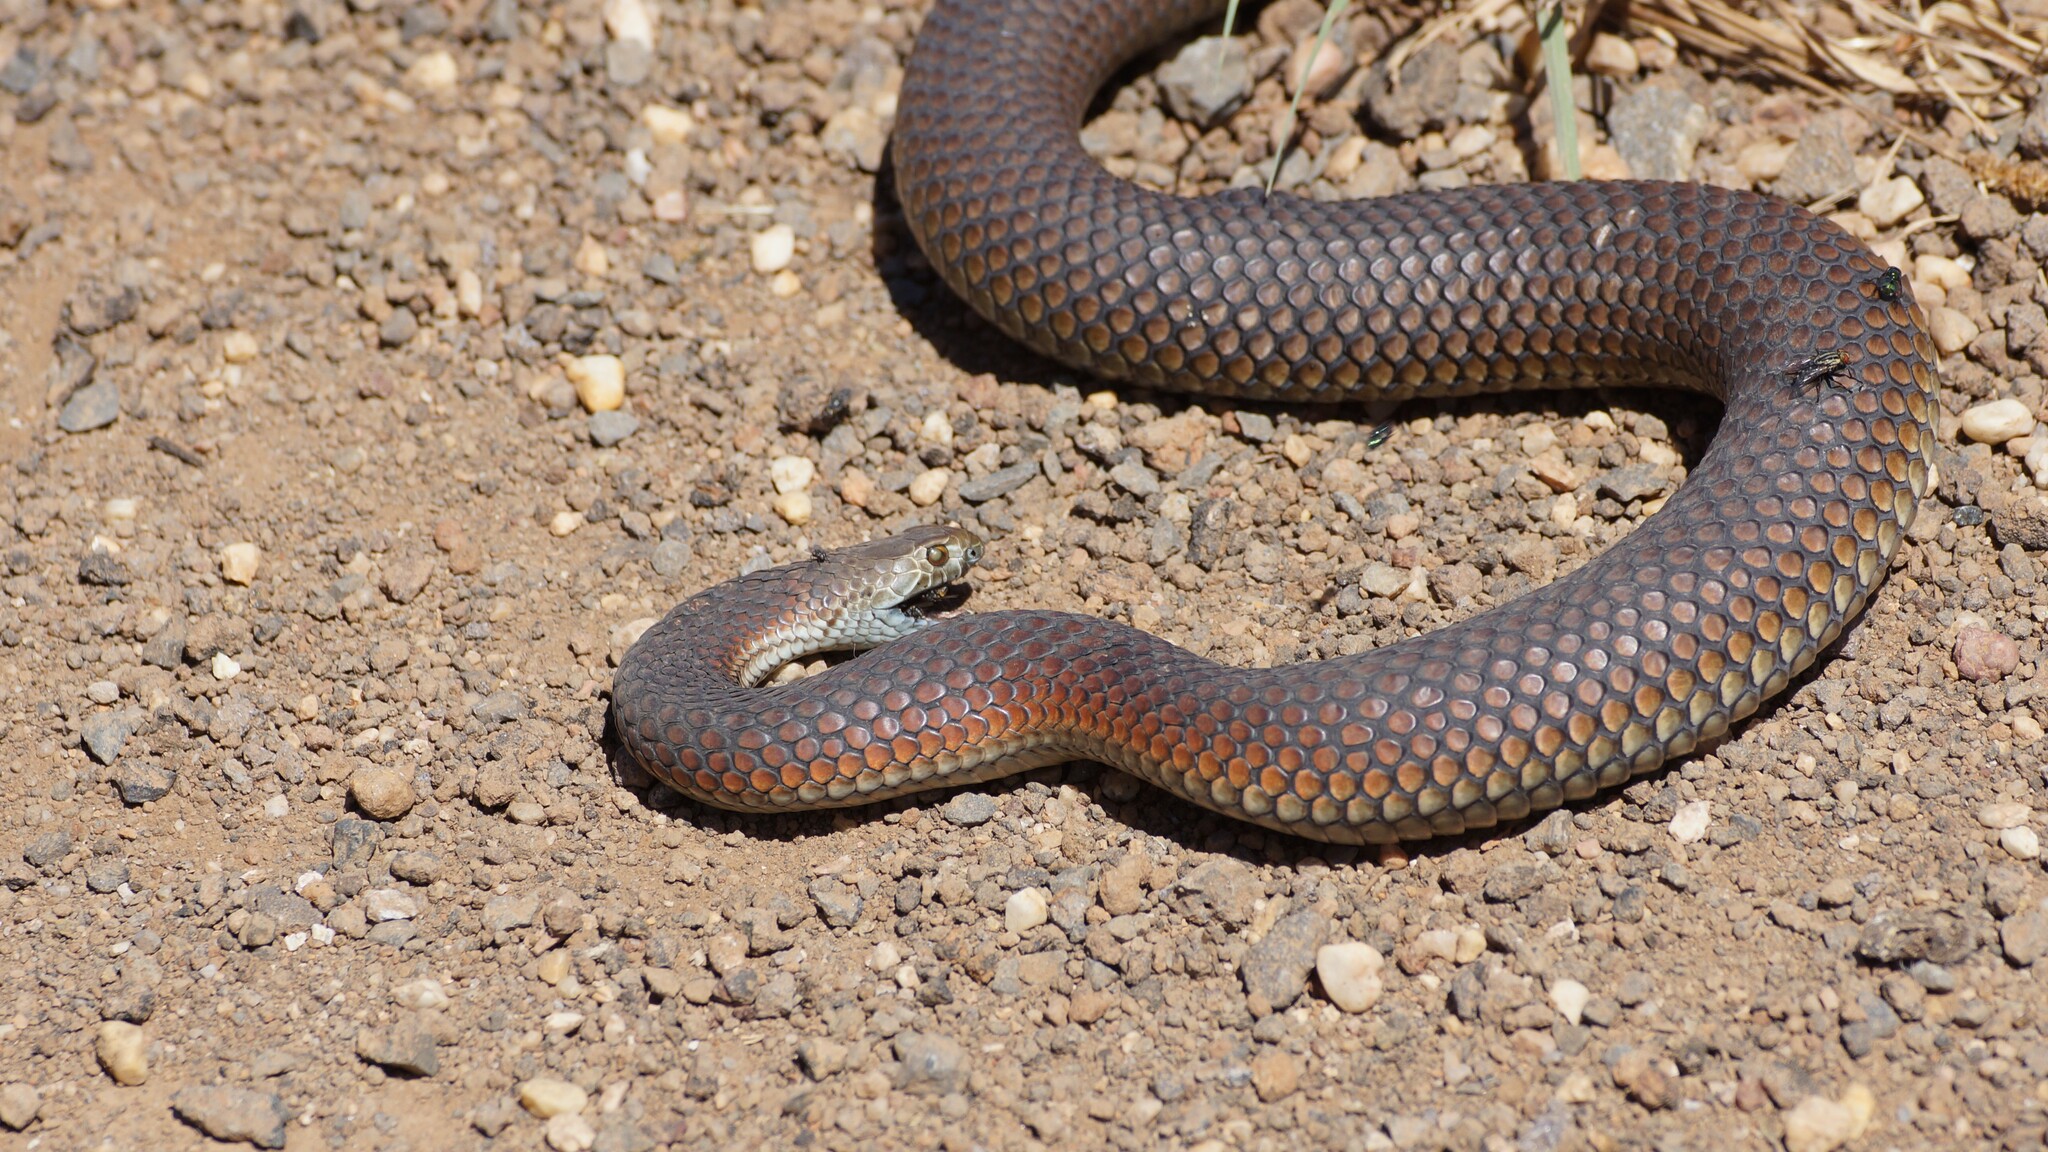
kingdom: Animalia
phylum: Chordata
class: Squamata
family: Elapidae
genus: Austrelaps
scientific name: Austrelaps superbus
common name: Copperhead snake
